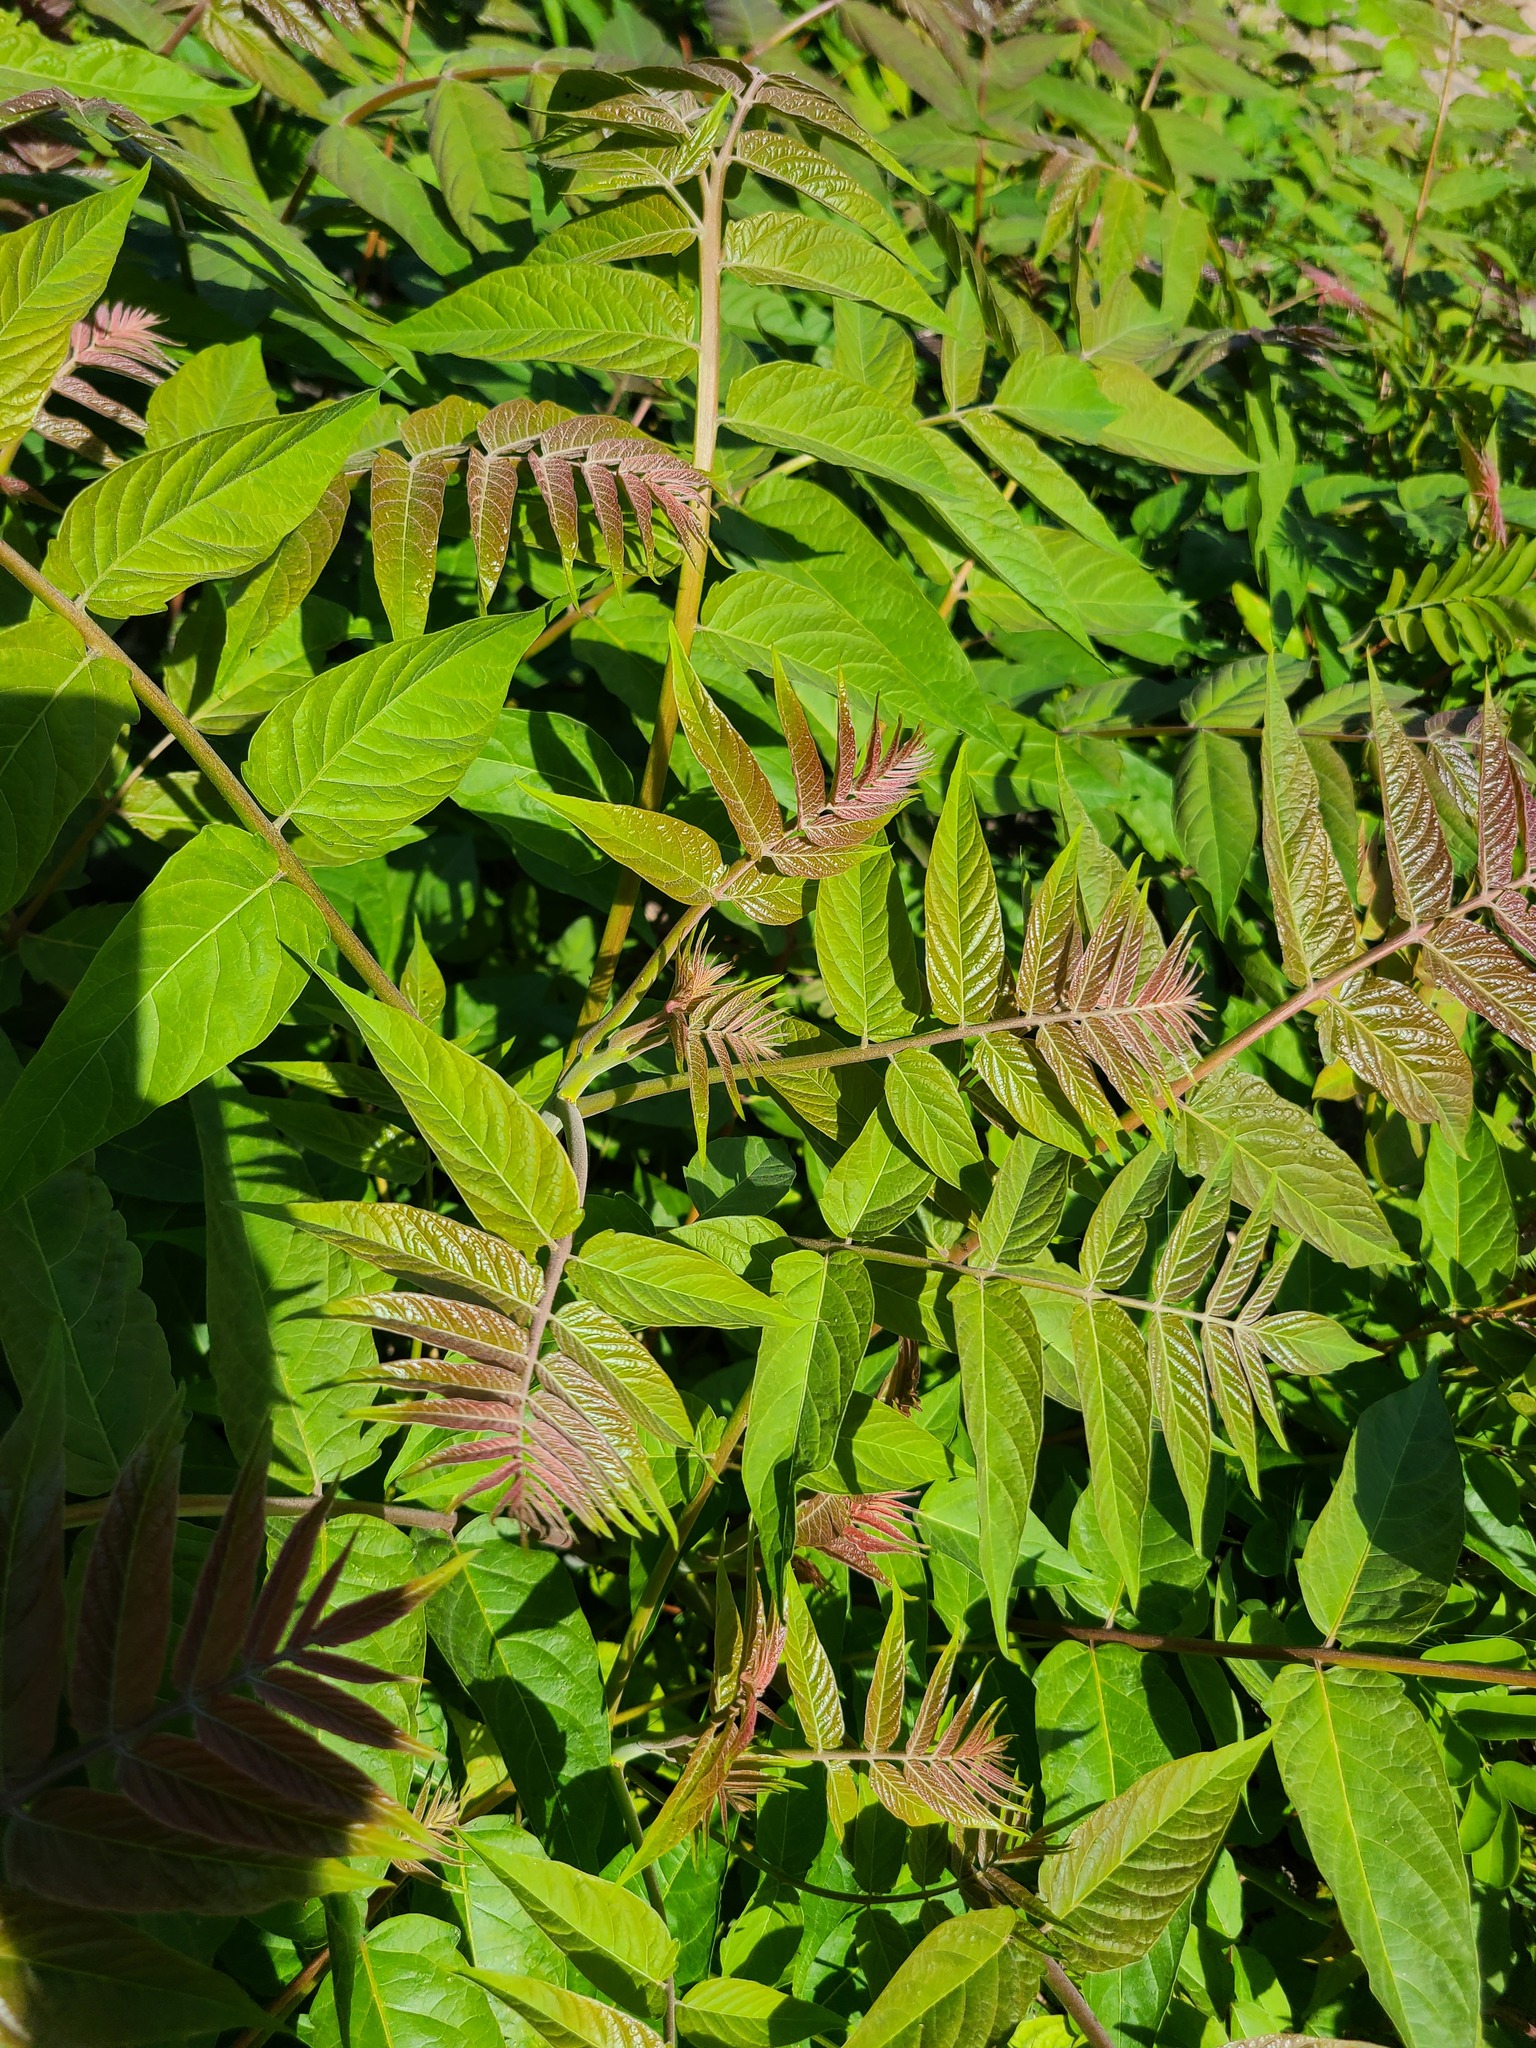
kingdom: Plantae
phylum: Tracheophyta
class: Magnoliopsida
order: Sapindales
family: Simaroubaceae
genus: Ailanthus
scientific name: Ailanthus altissima
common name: Tree-of-heaven
